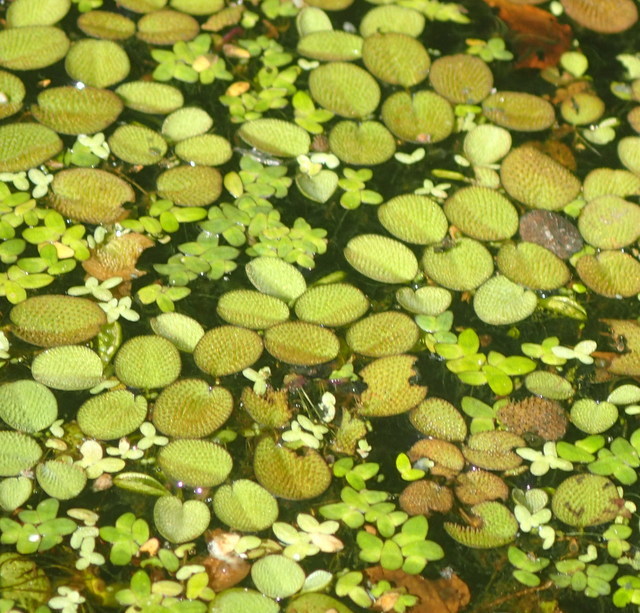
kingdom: Plantae
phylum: Tracheophyta
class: Polypodiopsida
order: Salviniales
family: Salviniaceae
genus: Salvinia
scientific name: Salvinia minima
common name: Water spangles
